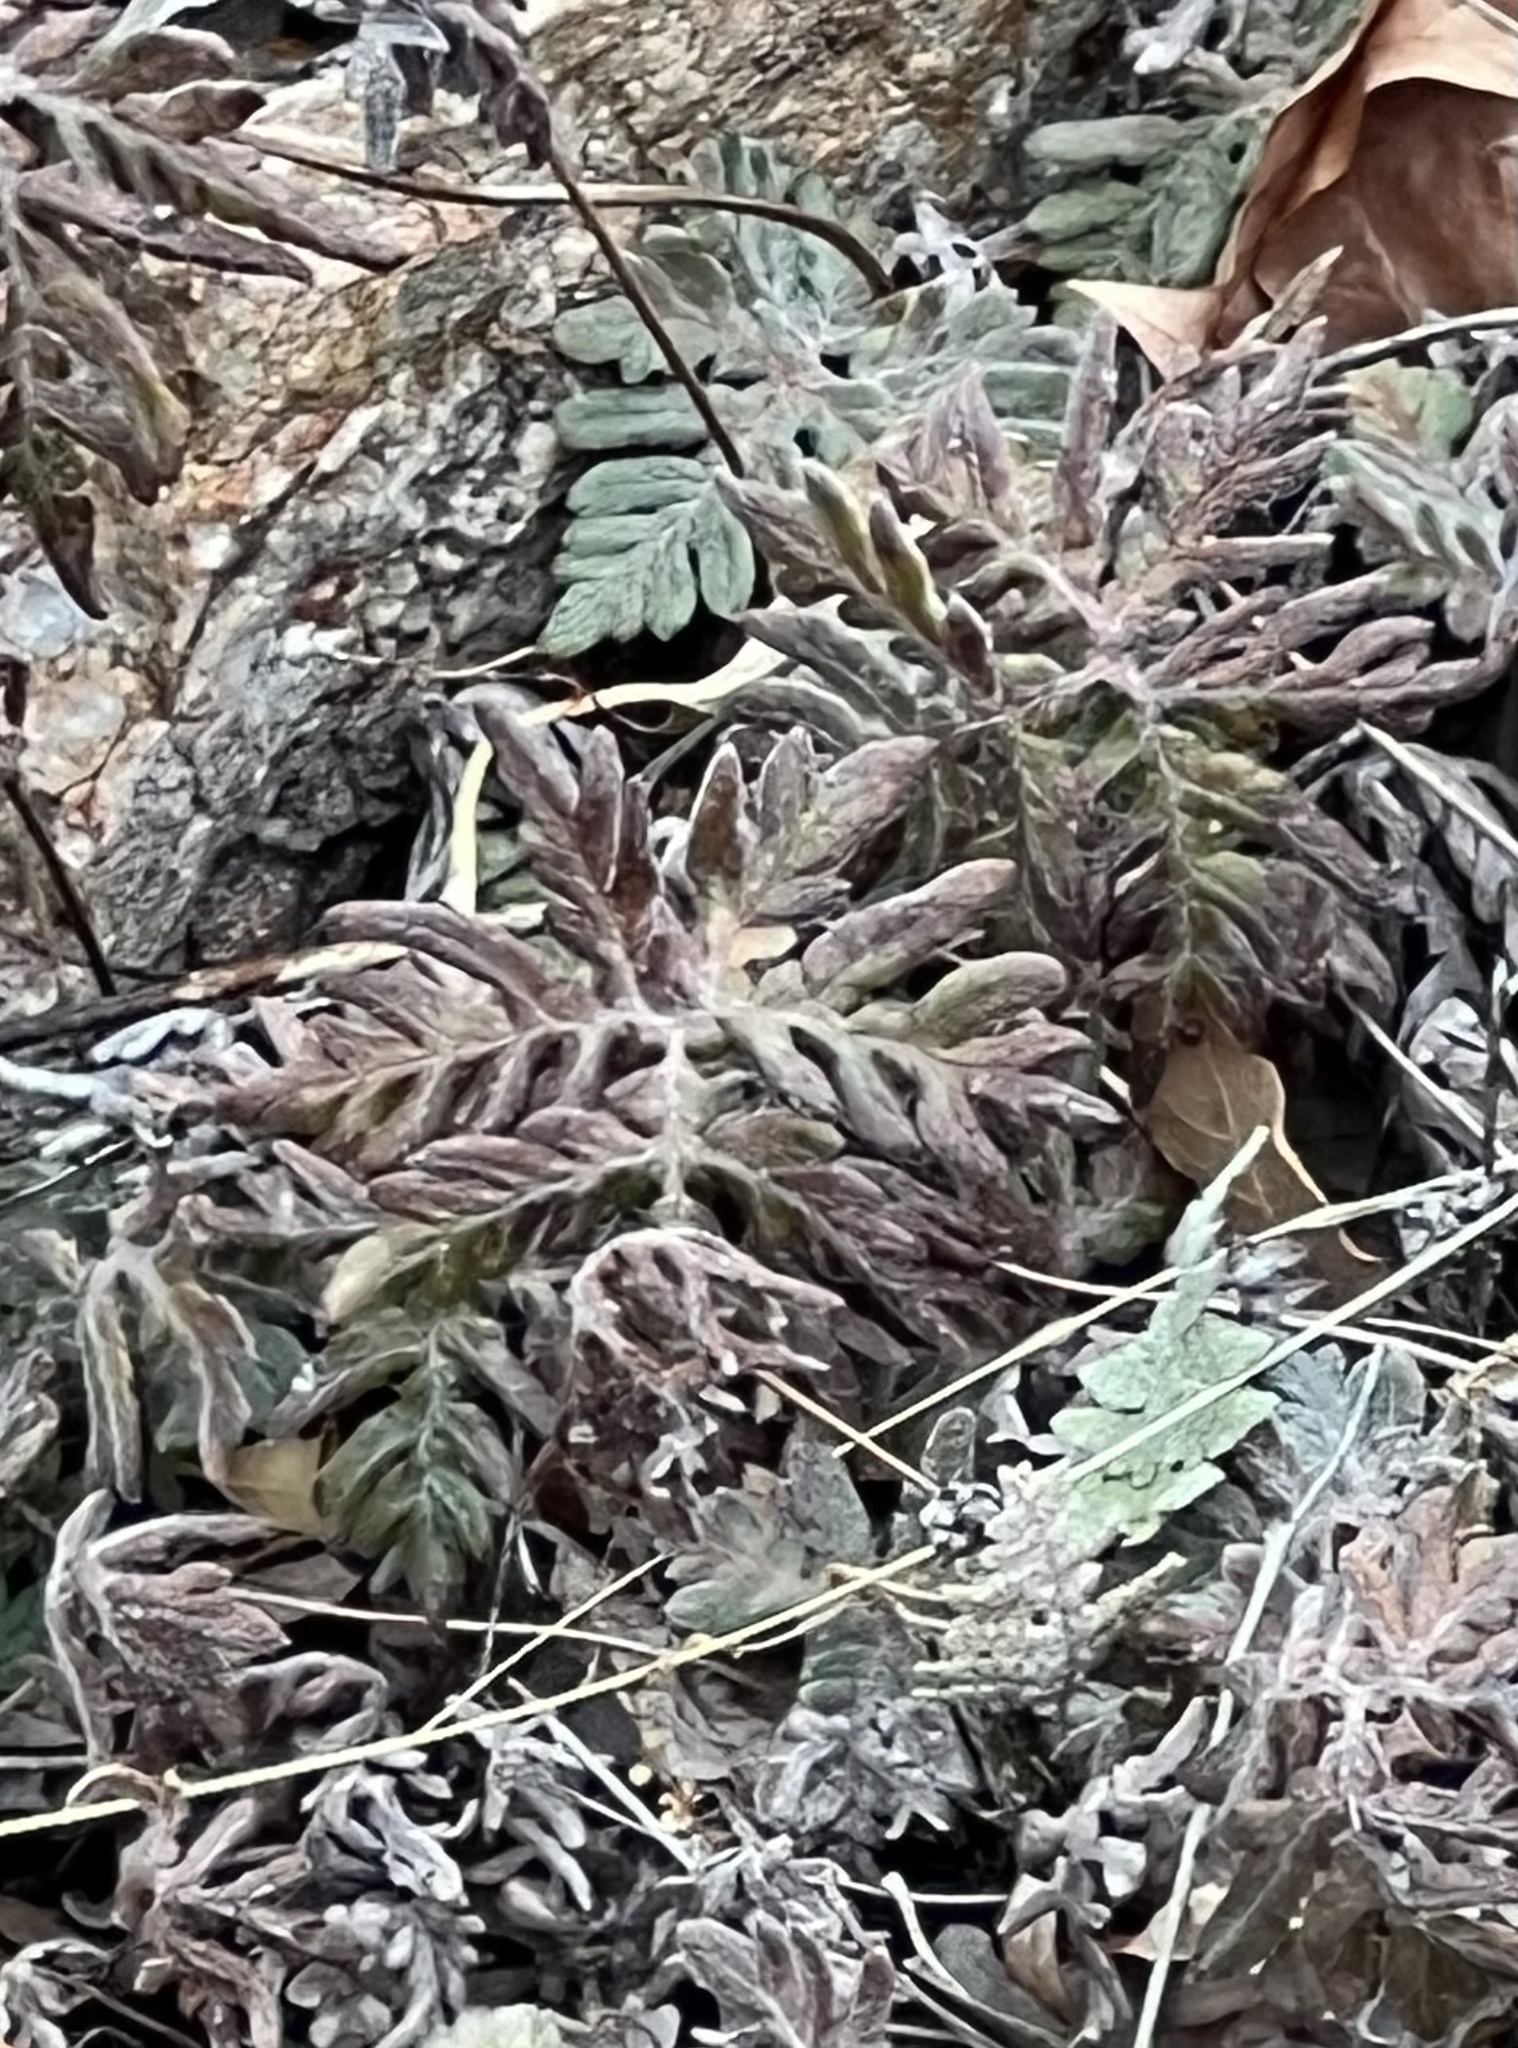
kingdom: Plantae
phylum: Tracheophyta
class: Polypodiopsida
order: Polypodiales
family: Pteridaceae
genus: Bommeria
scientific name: Bommeria hispida
